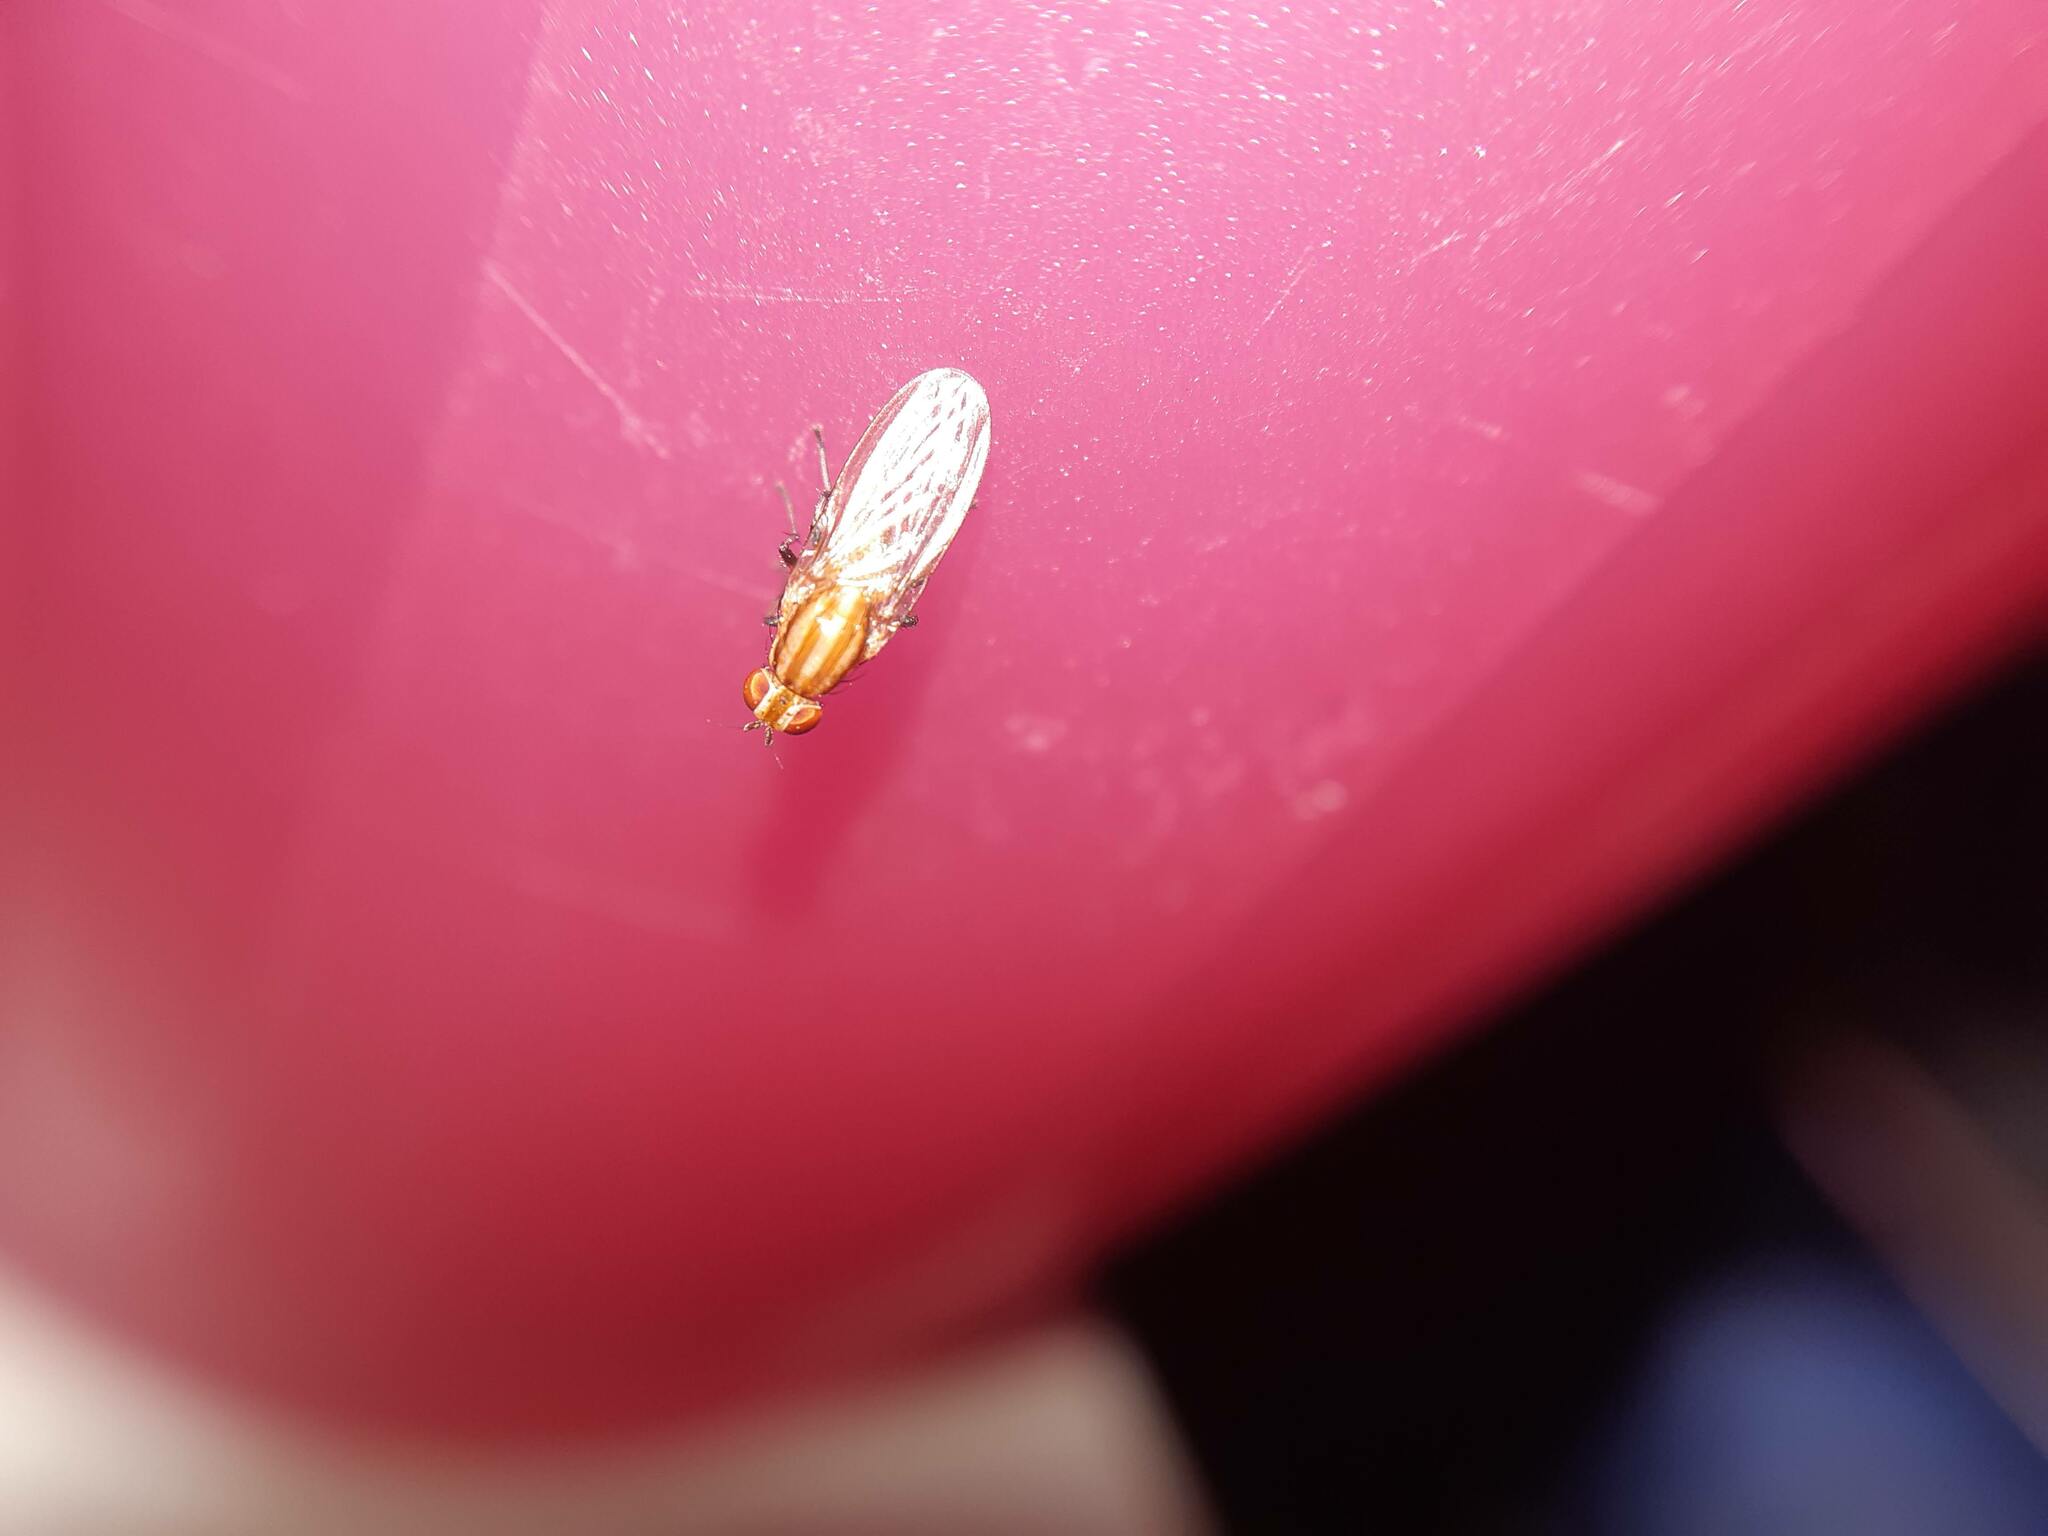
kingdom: Animalia
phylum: Arthropoda
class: Insecta
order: Diptera
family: Lauxaniidae
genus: Sapromyza
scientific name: Sapromyza brunneovittata
